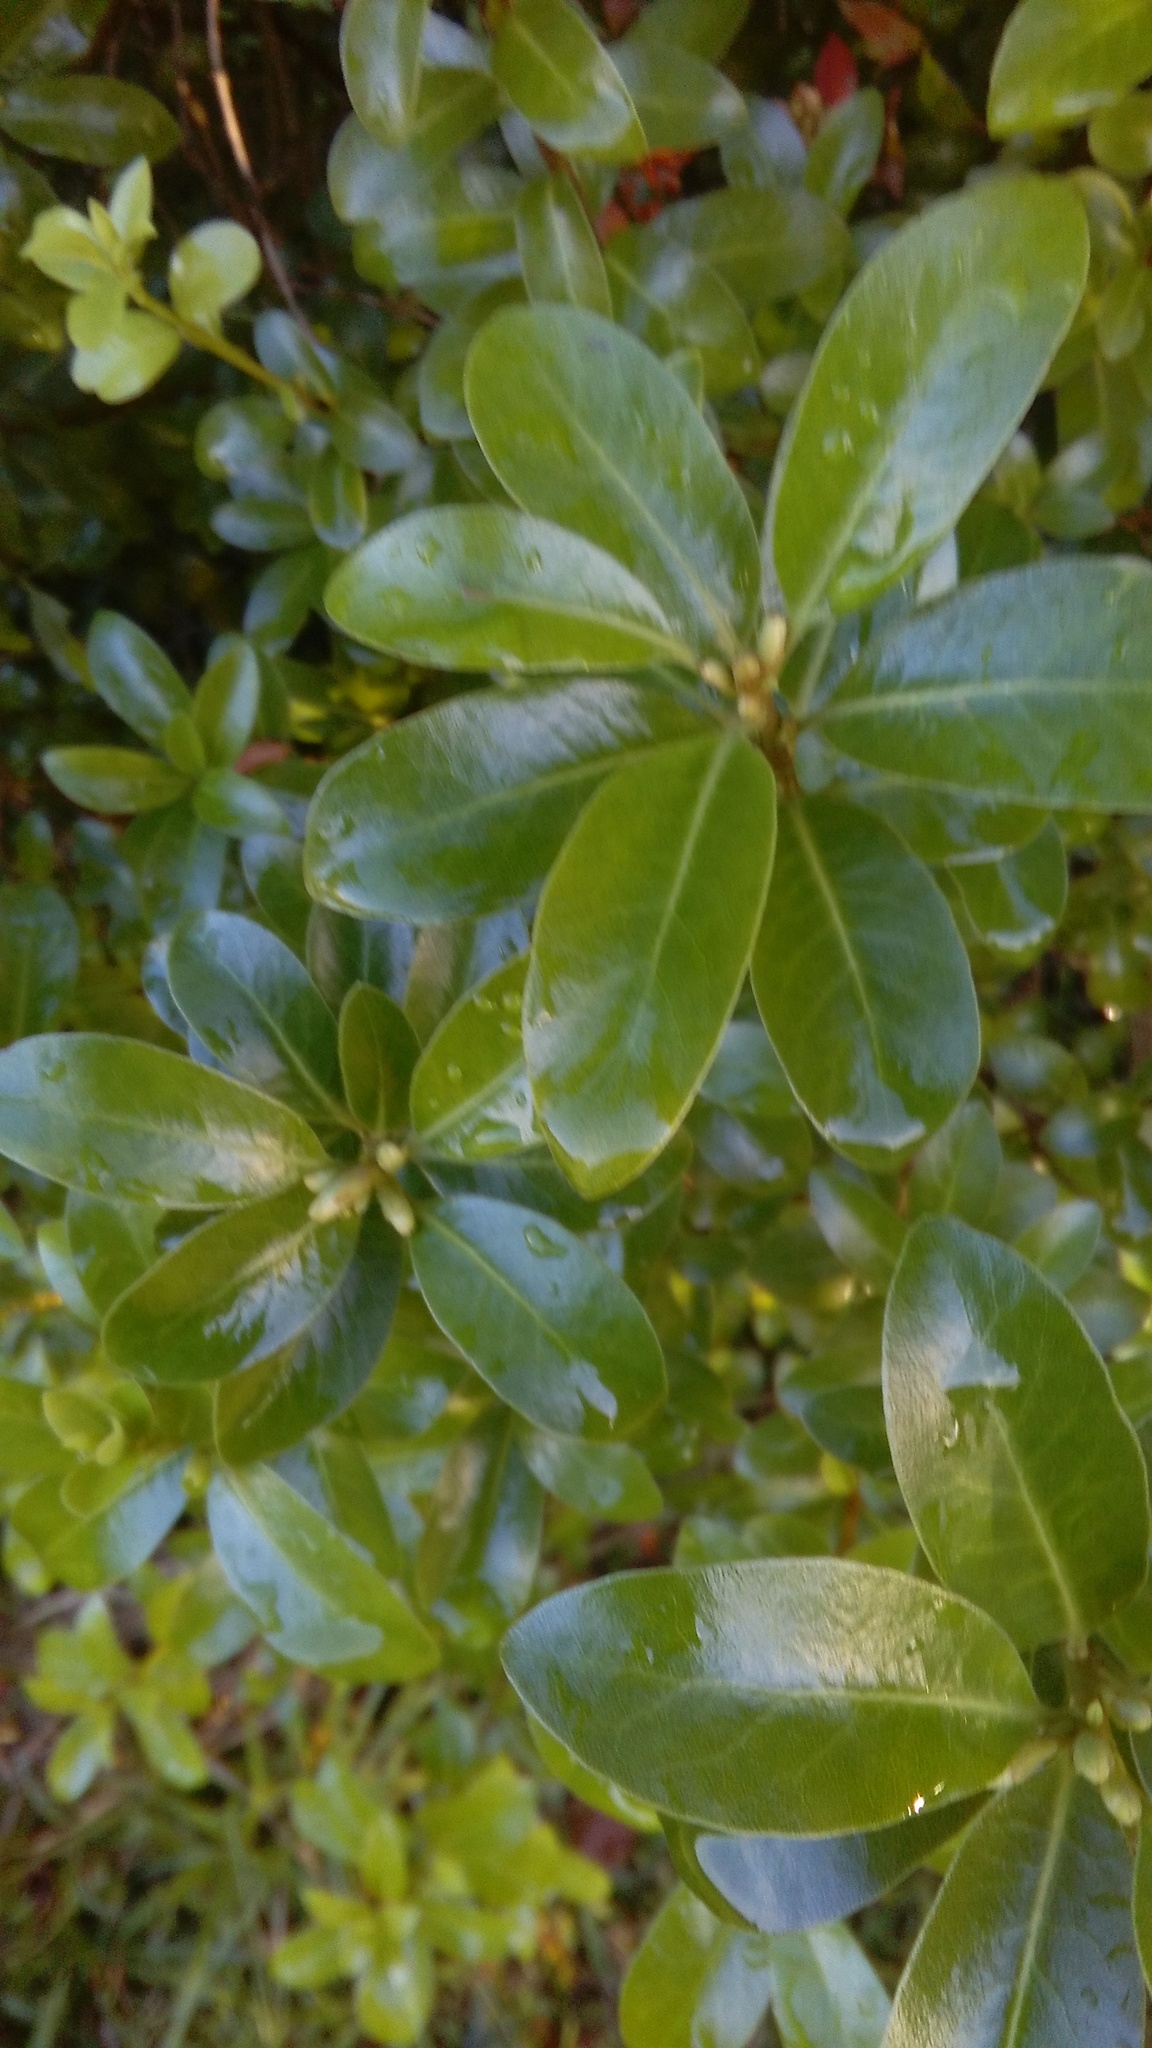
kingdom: Plantae
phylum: Tracheophyta
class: Magnoliopsida
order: Apiales
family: Pittosporaceae
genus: Pittosporum
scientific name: Pittosporum tenuifolium
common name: Kohuhu
